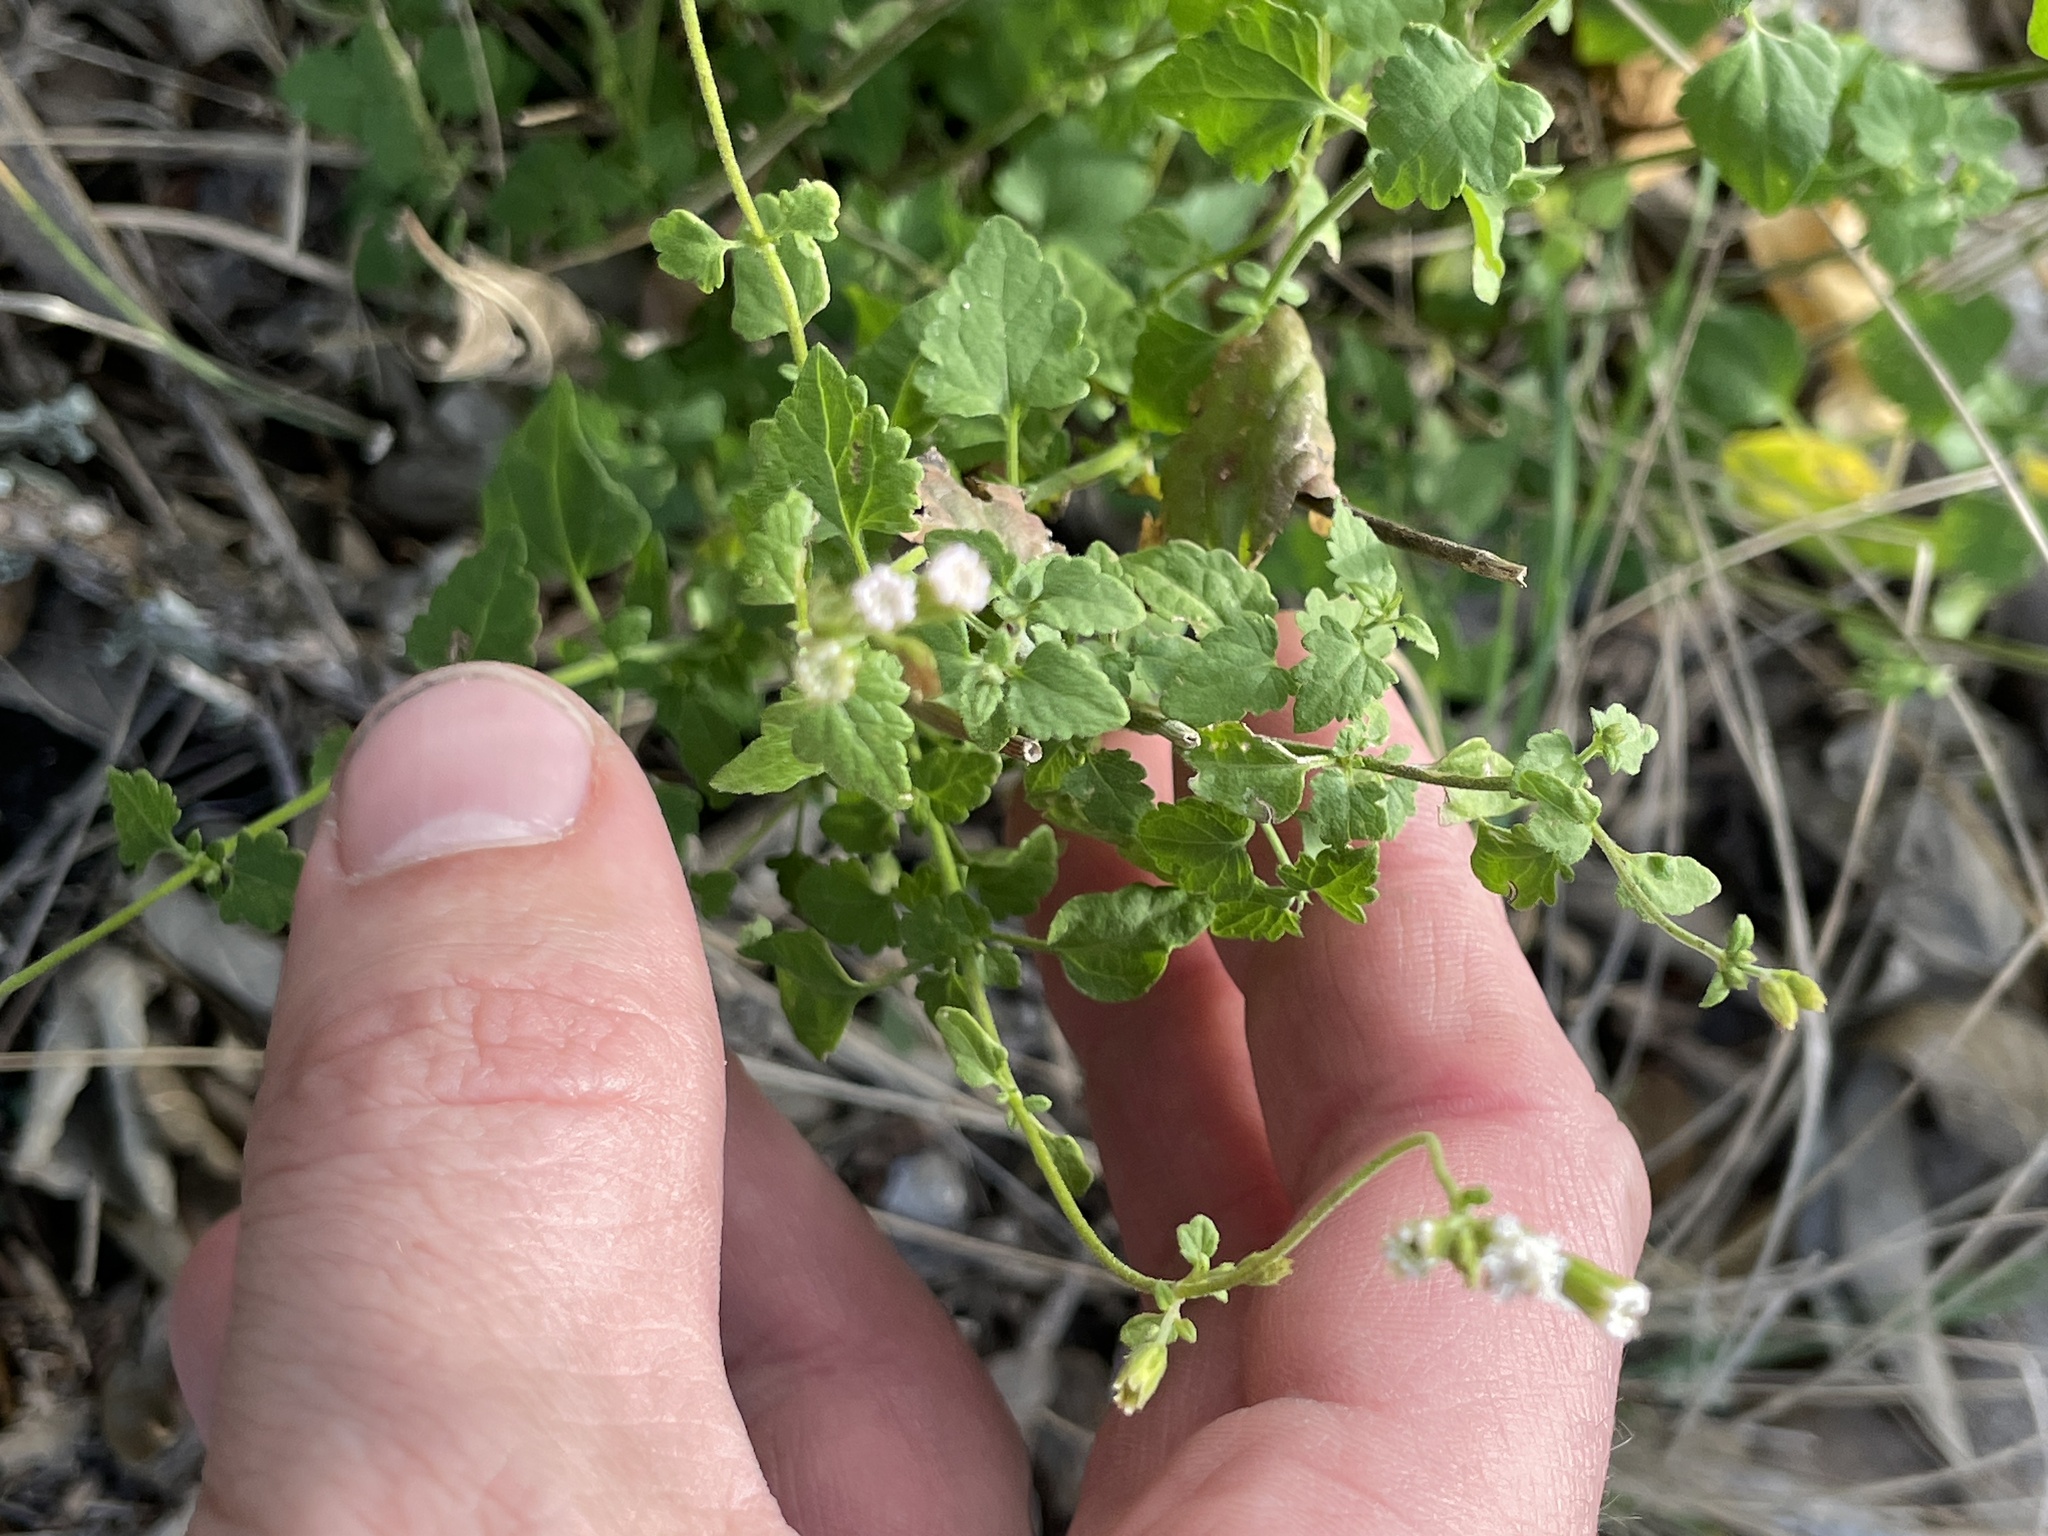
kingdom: Plantae
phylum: Tracheophyta
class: Magnoliopsida
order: Asterales
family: Asteraceae
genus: Fleischmannia
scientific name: Fleischmannia incarnata
